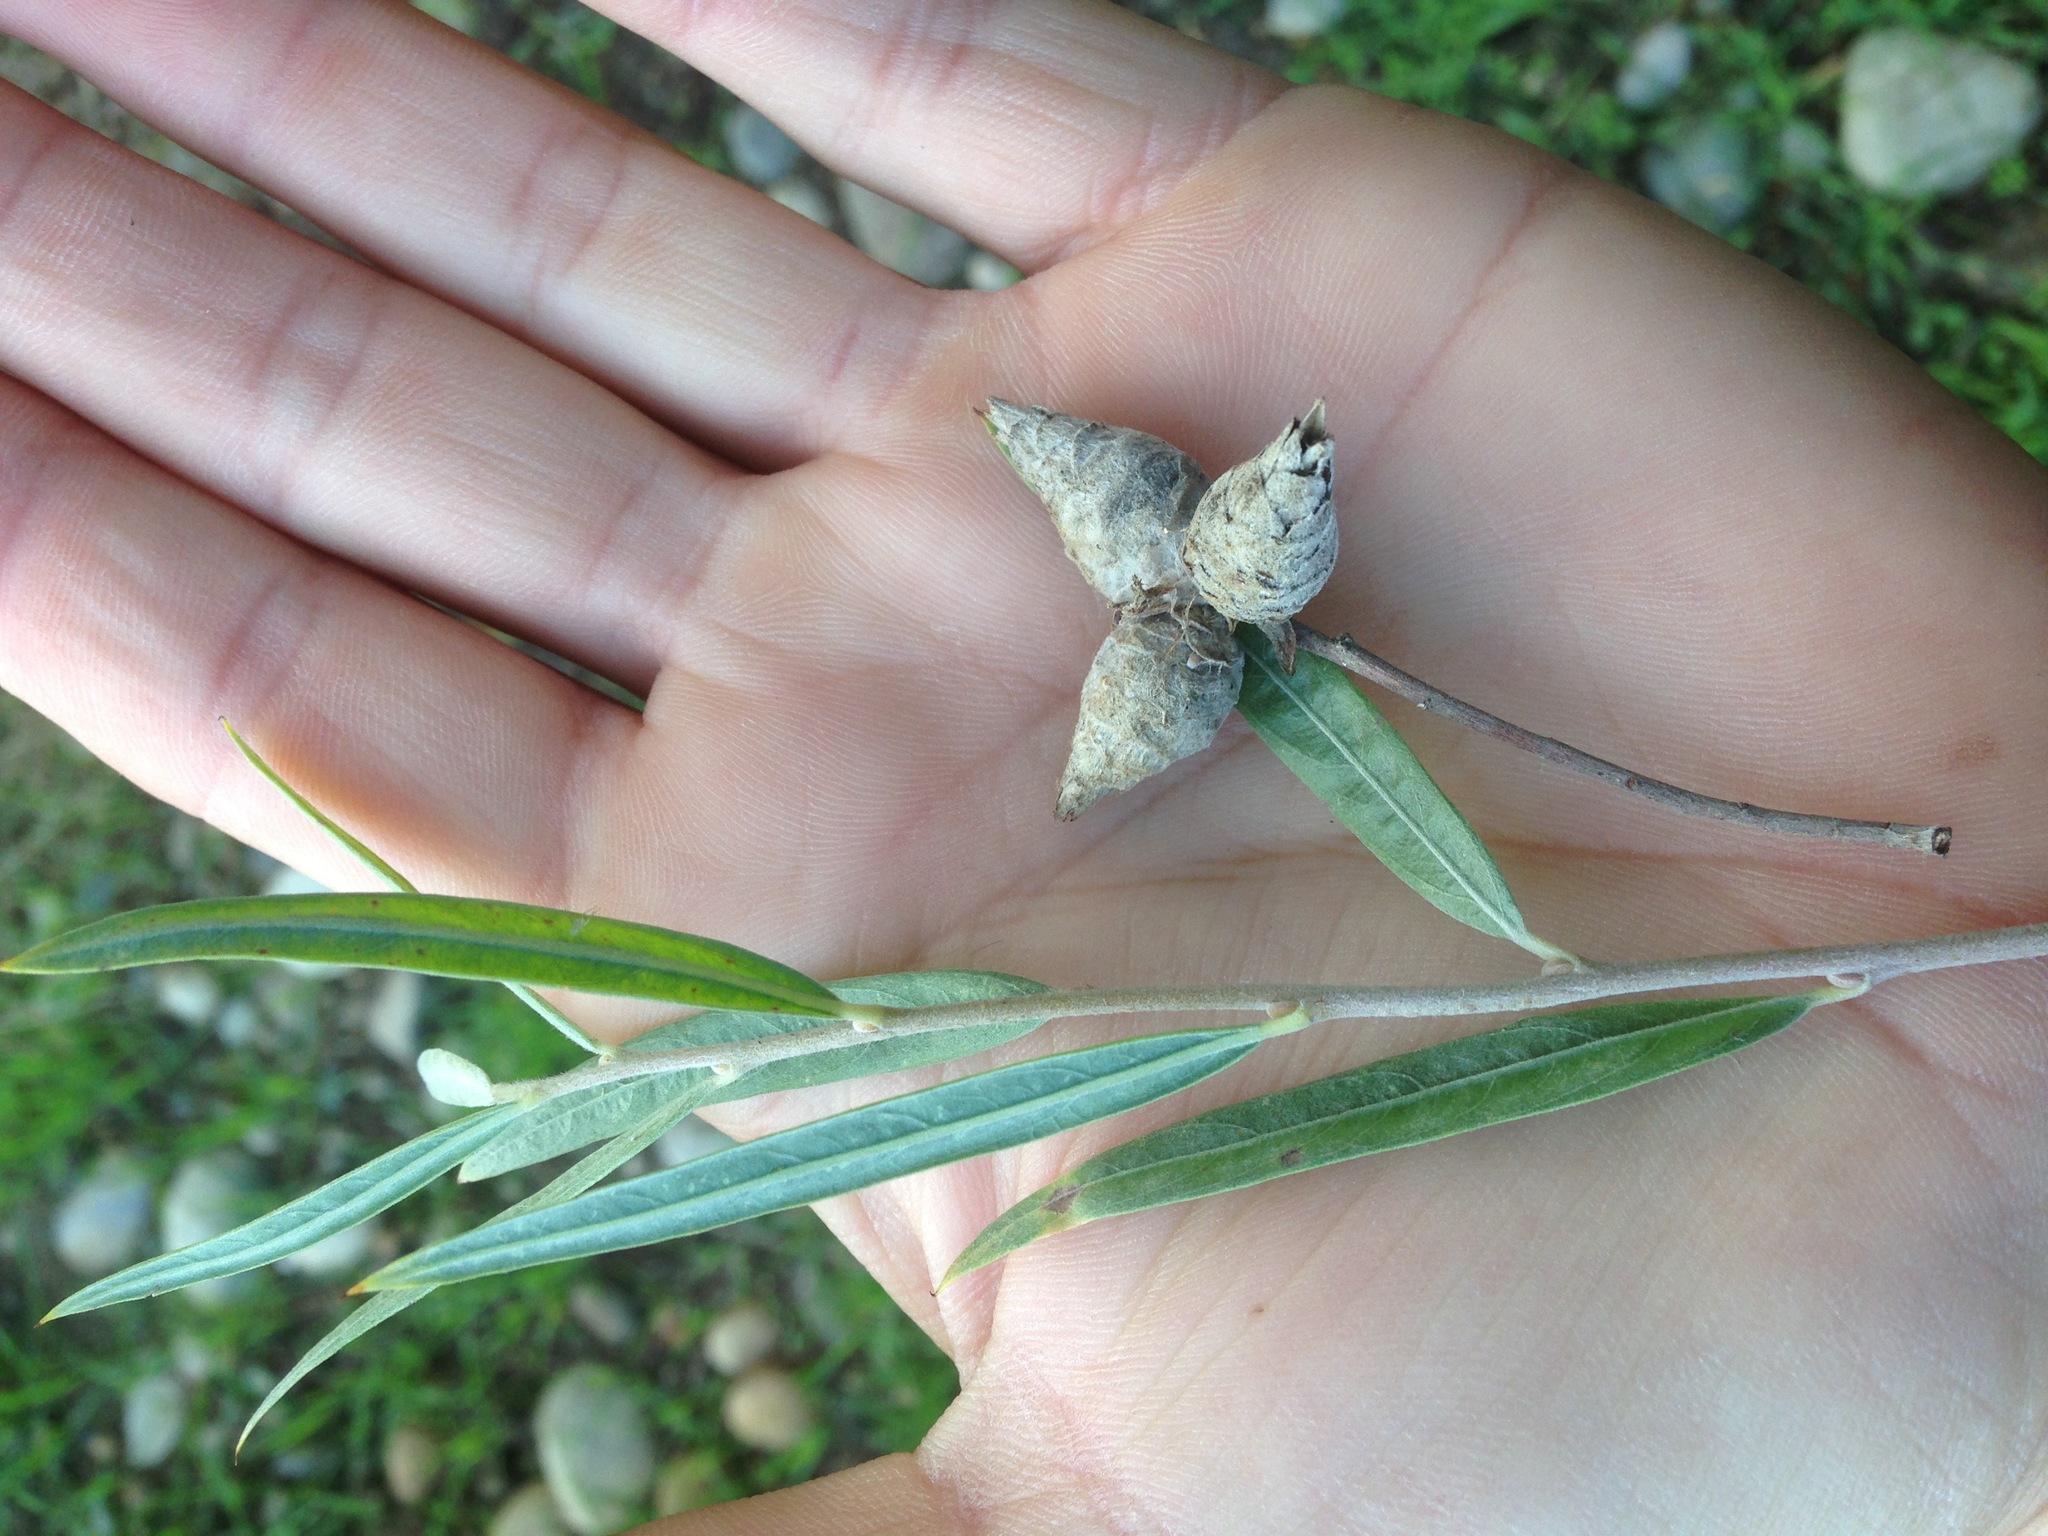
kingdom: Animalia
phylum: Arthropoda
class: Insecta
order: Diptera
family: Cecidomyiidae
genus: Rabdophaga
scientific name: Rabdophaga strobiloides
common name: Willow pinecone gall midge
